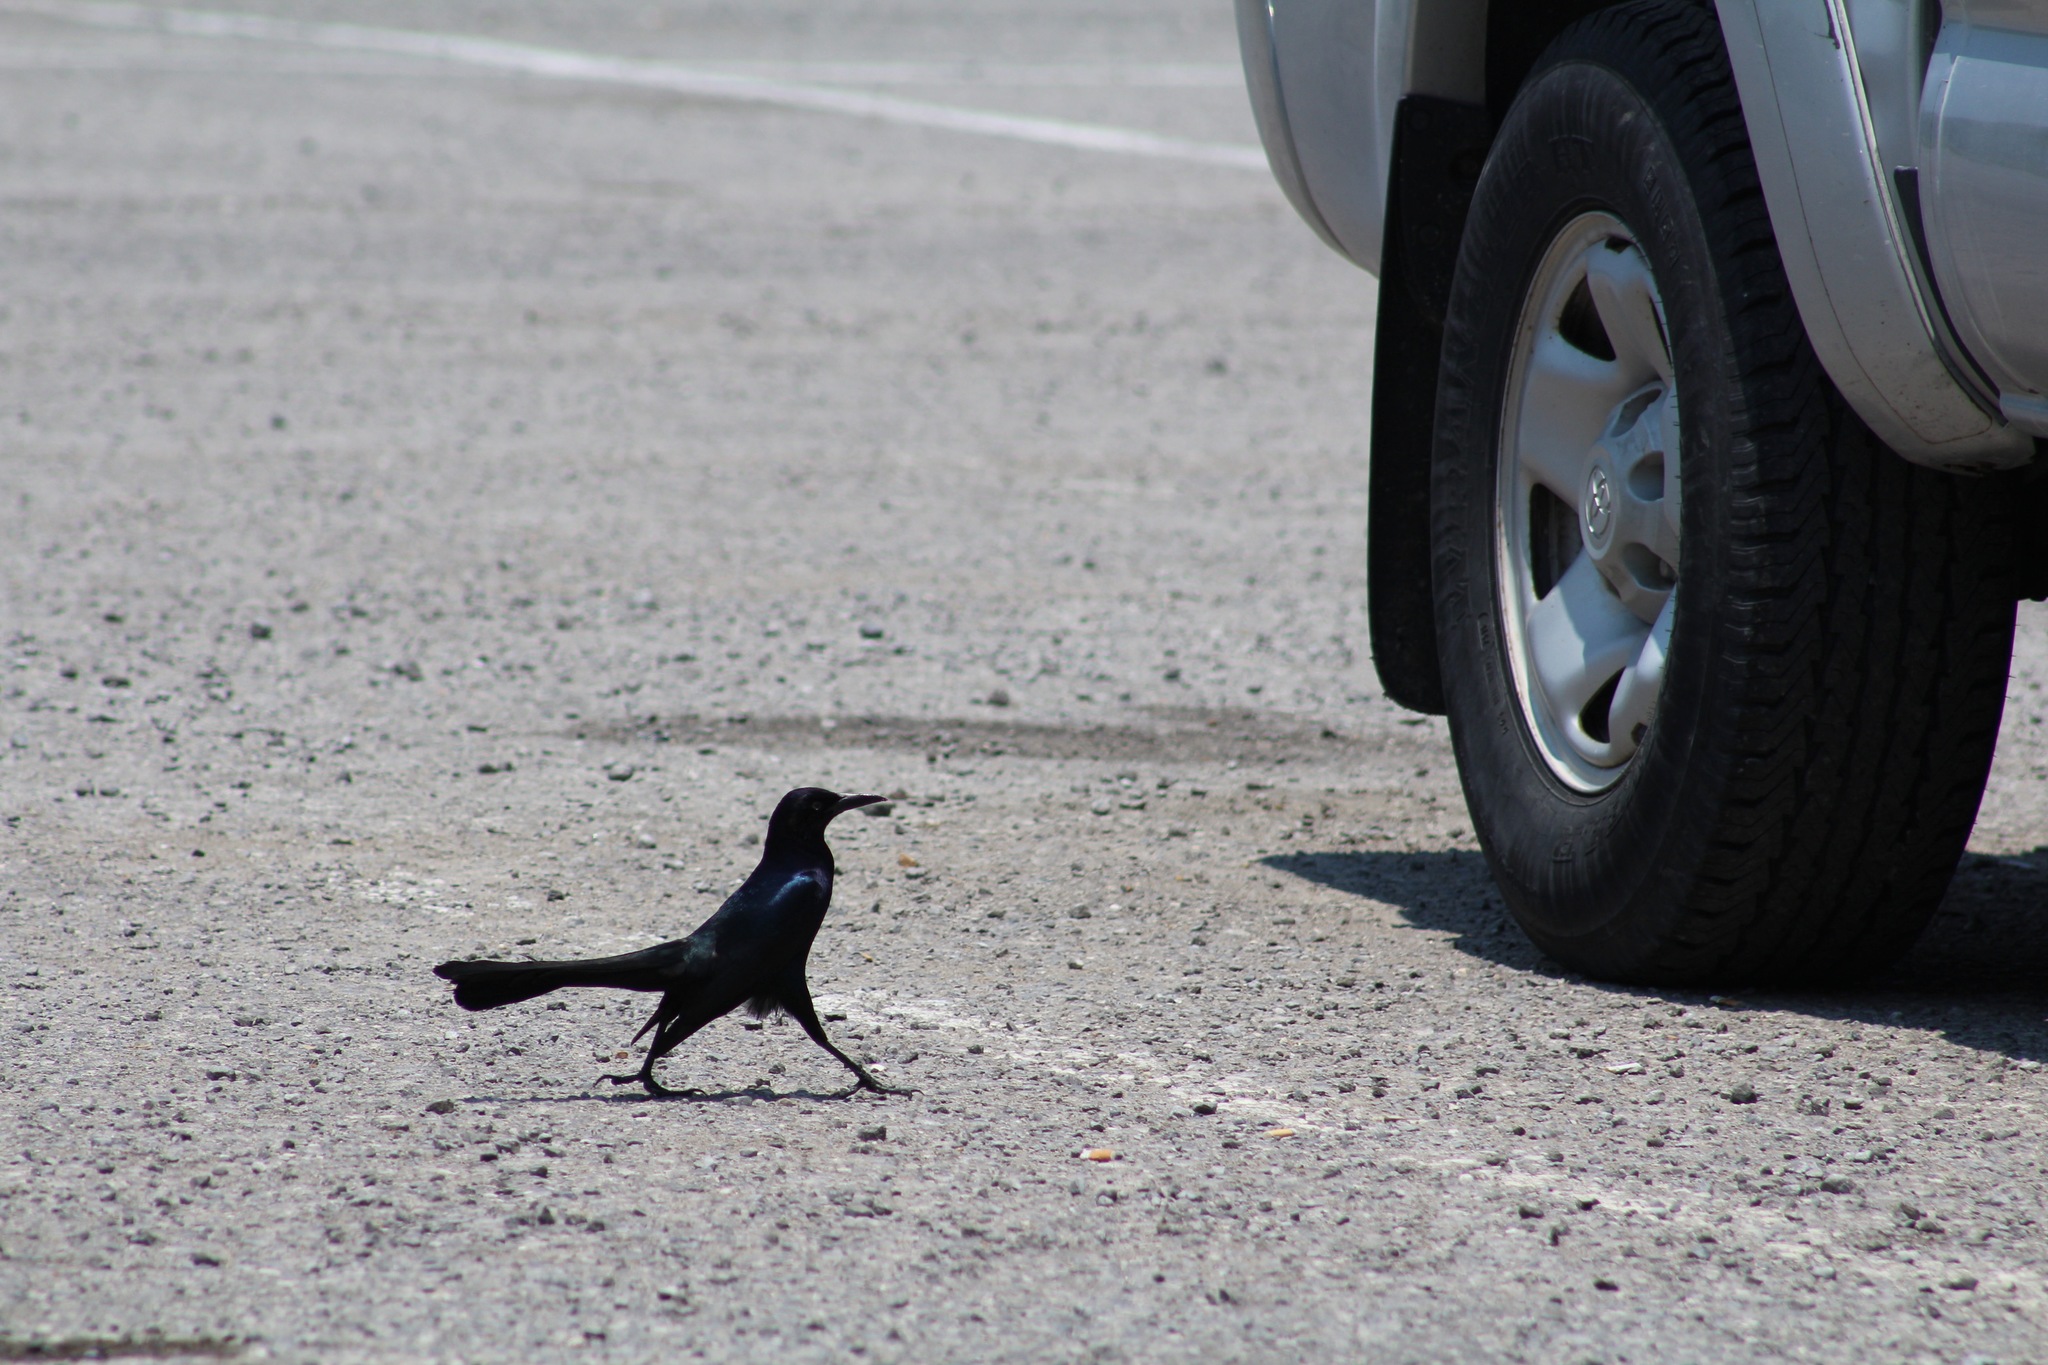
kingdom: Animalia
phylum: Chordata
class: Aves
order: Passeriformes
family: Icteridae
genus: Quiscalus
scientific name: Quiscalus major
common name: Boat-tailed grackle
